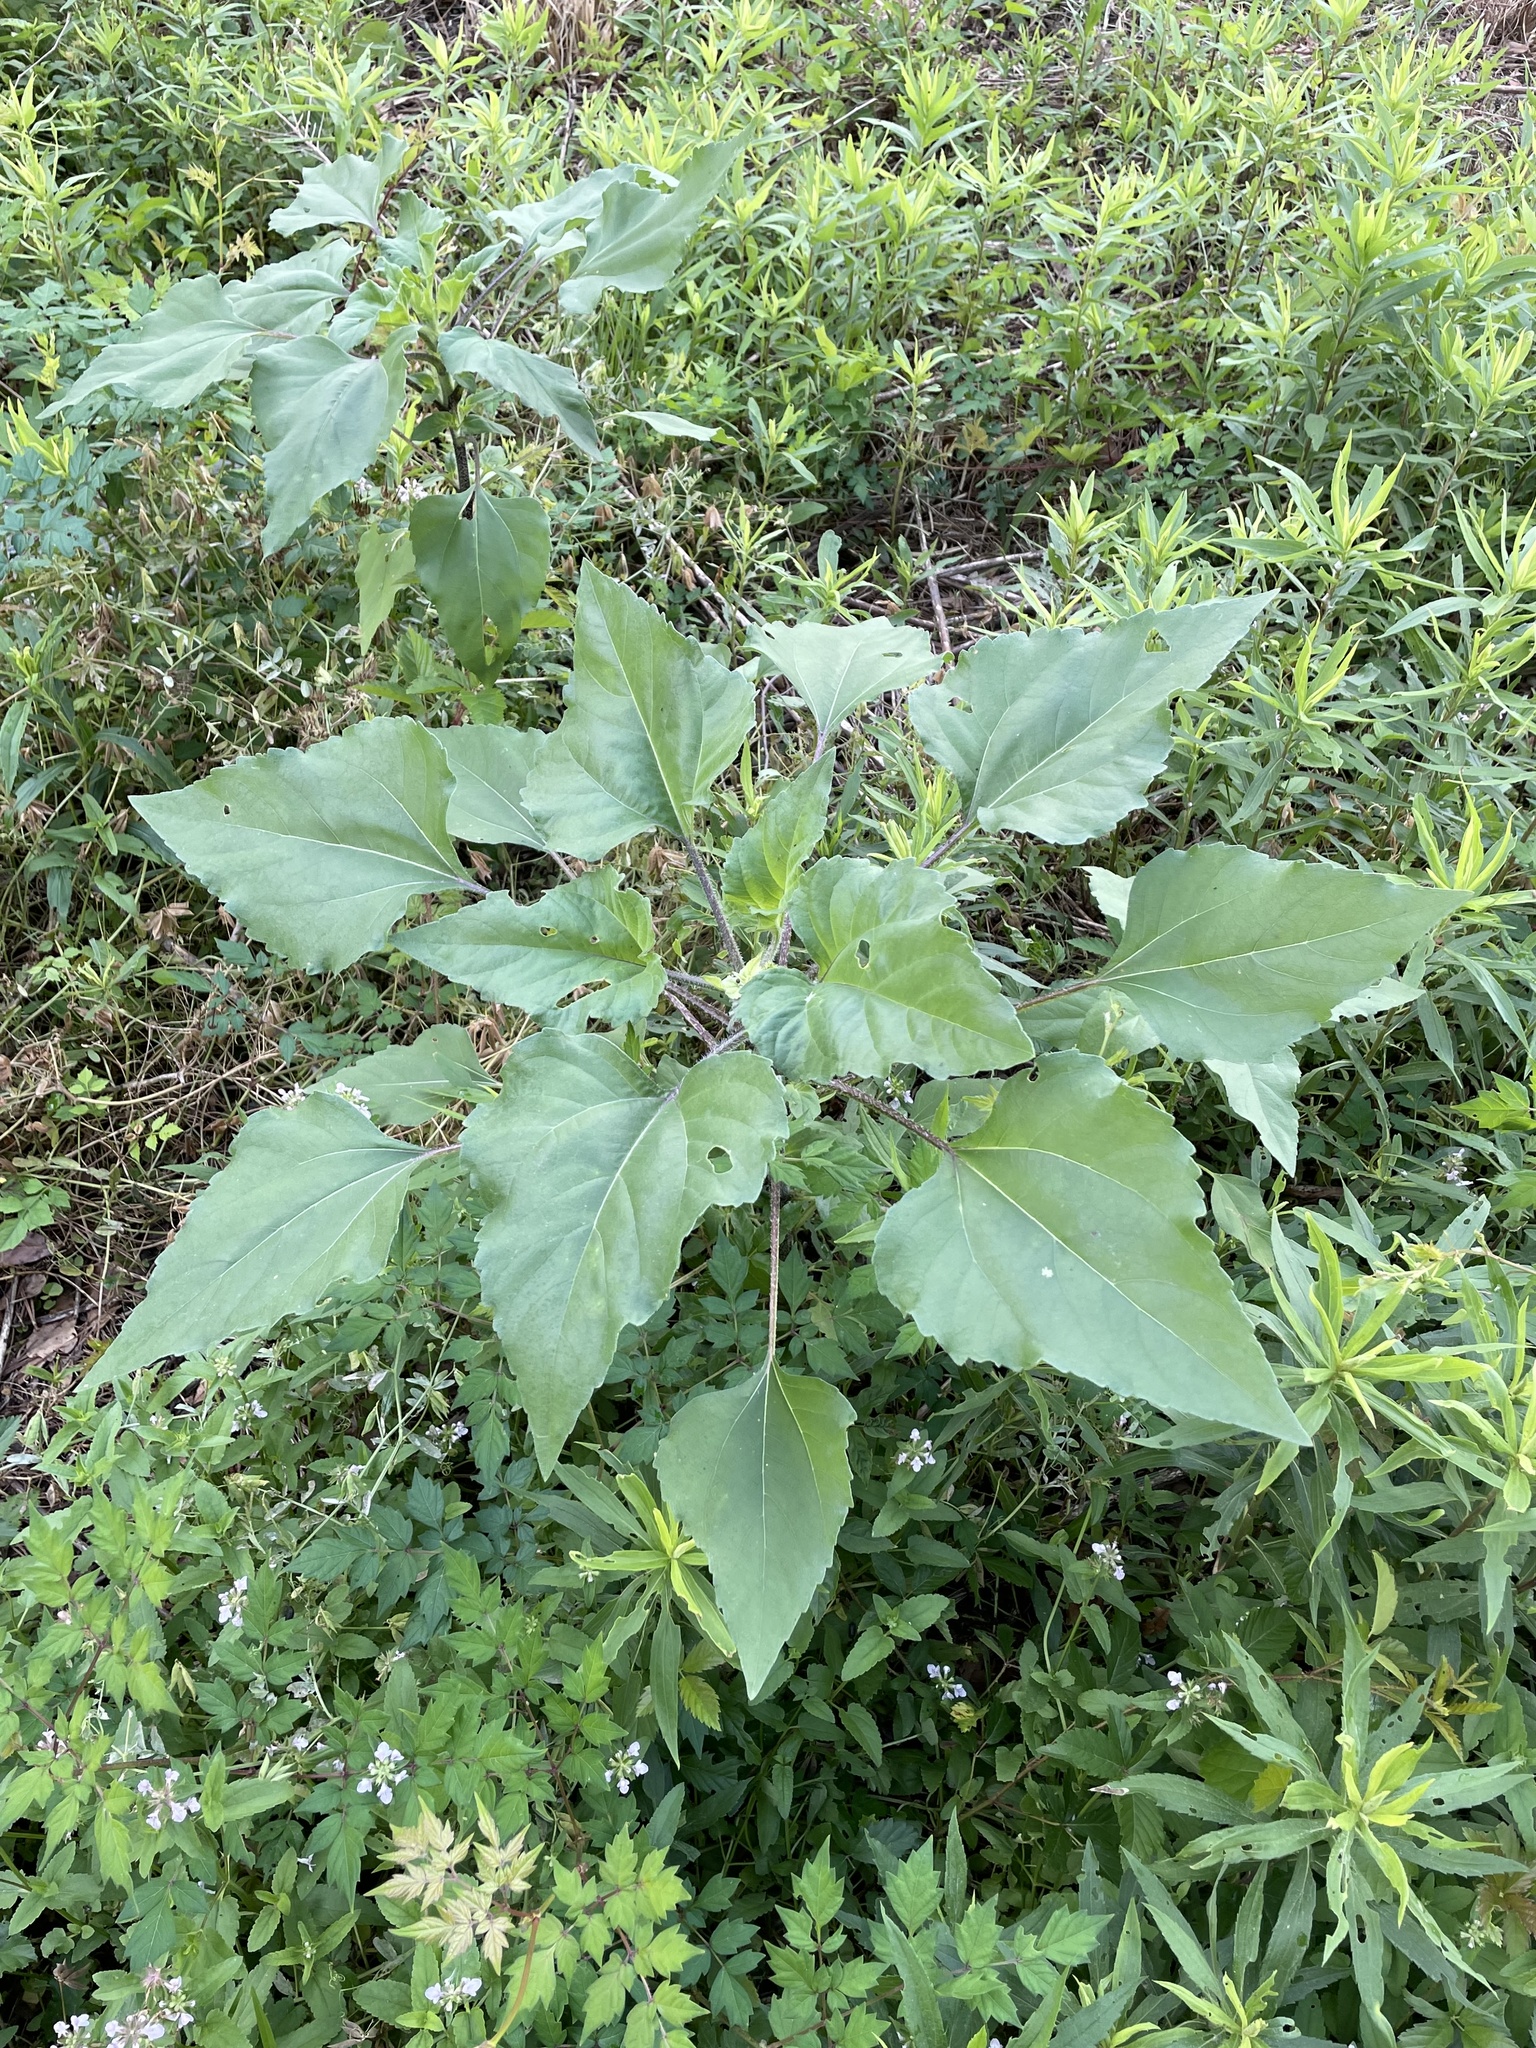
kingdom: Plantae
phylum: Tracheophyta
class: Magnoliopsida
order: Asterales
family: Asteraceae
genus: Helianthus
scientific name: Helianthus annuus
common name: Sunflower
